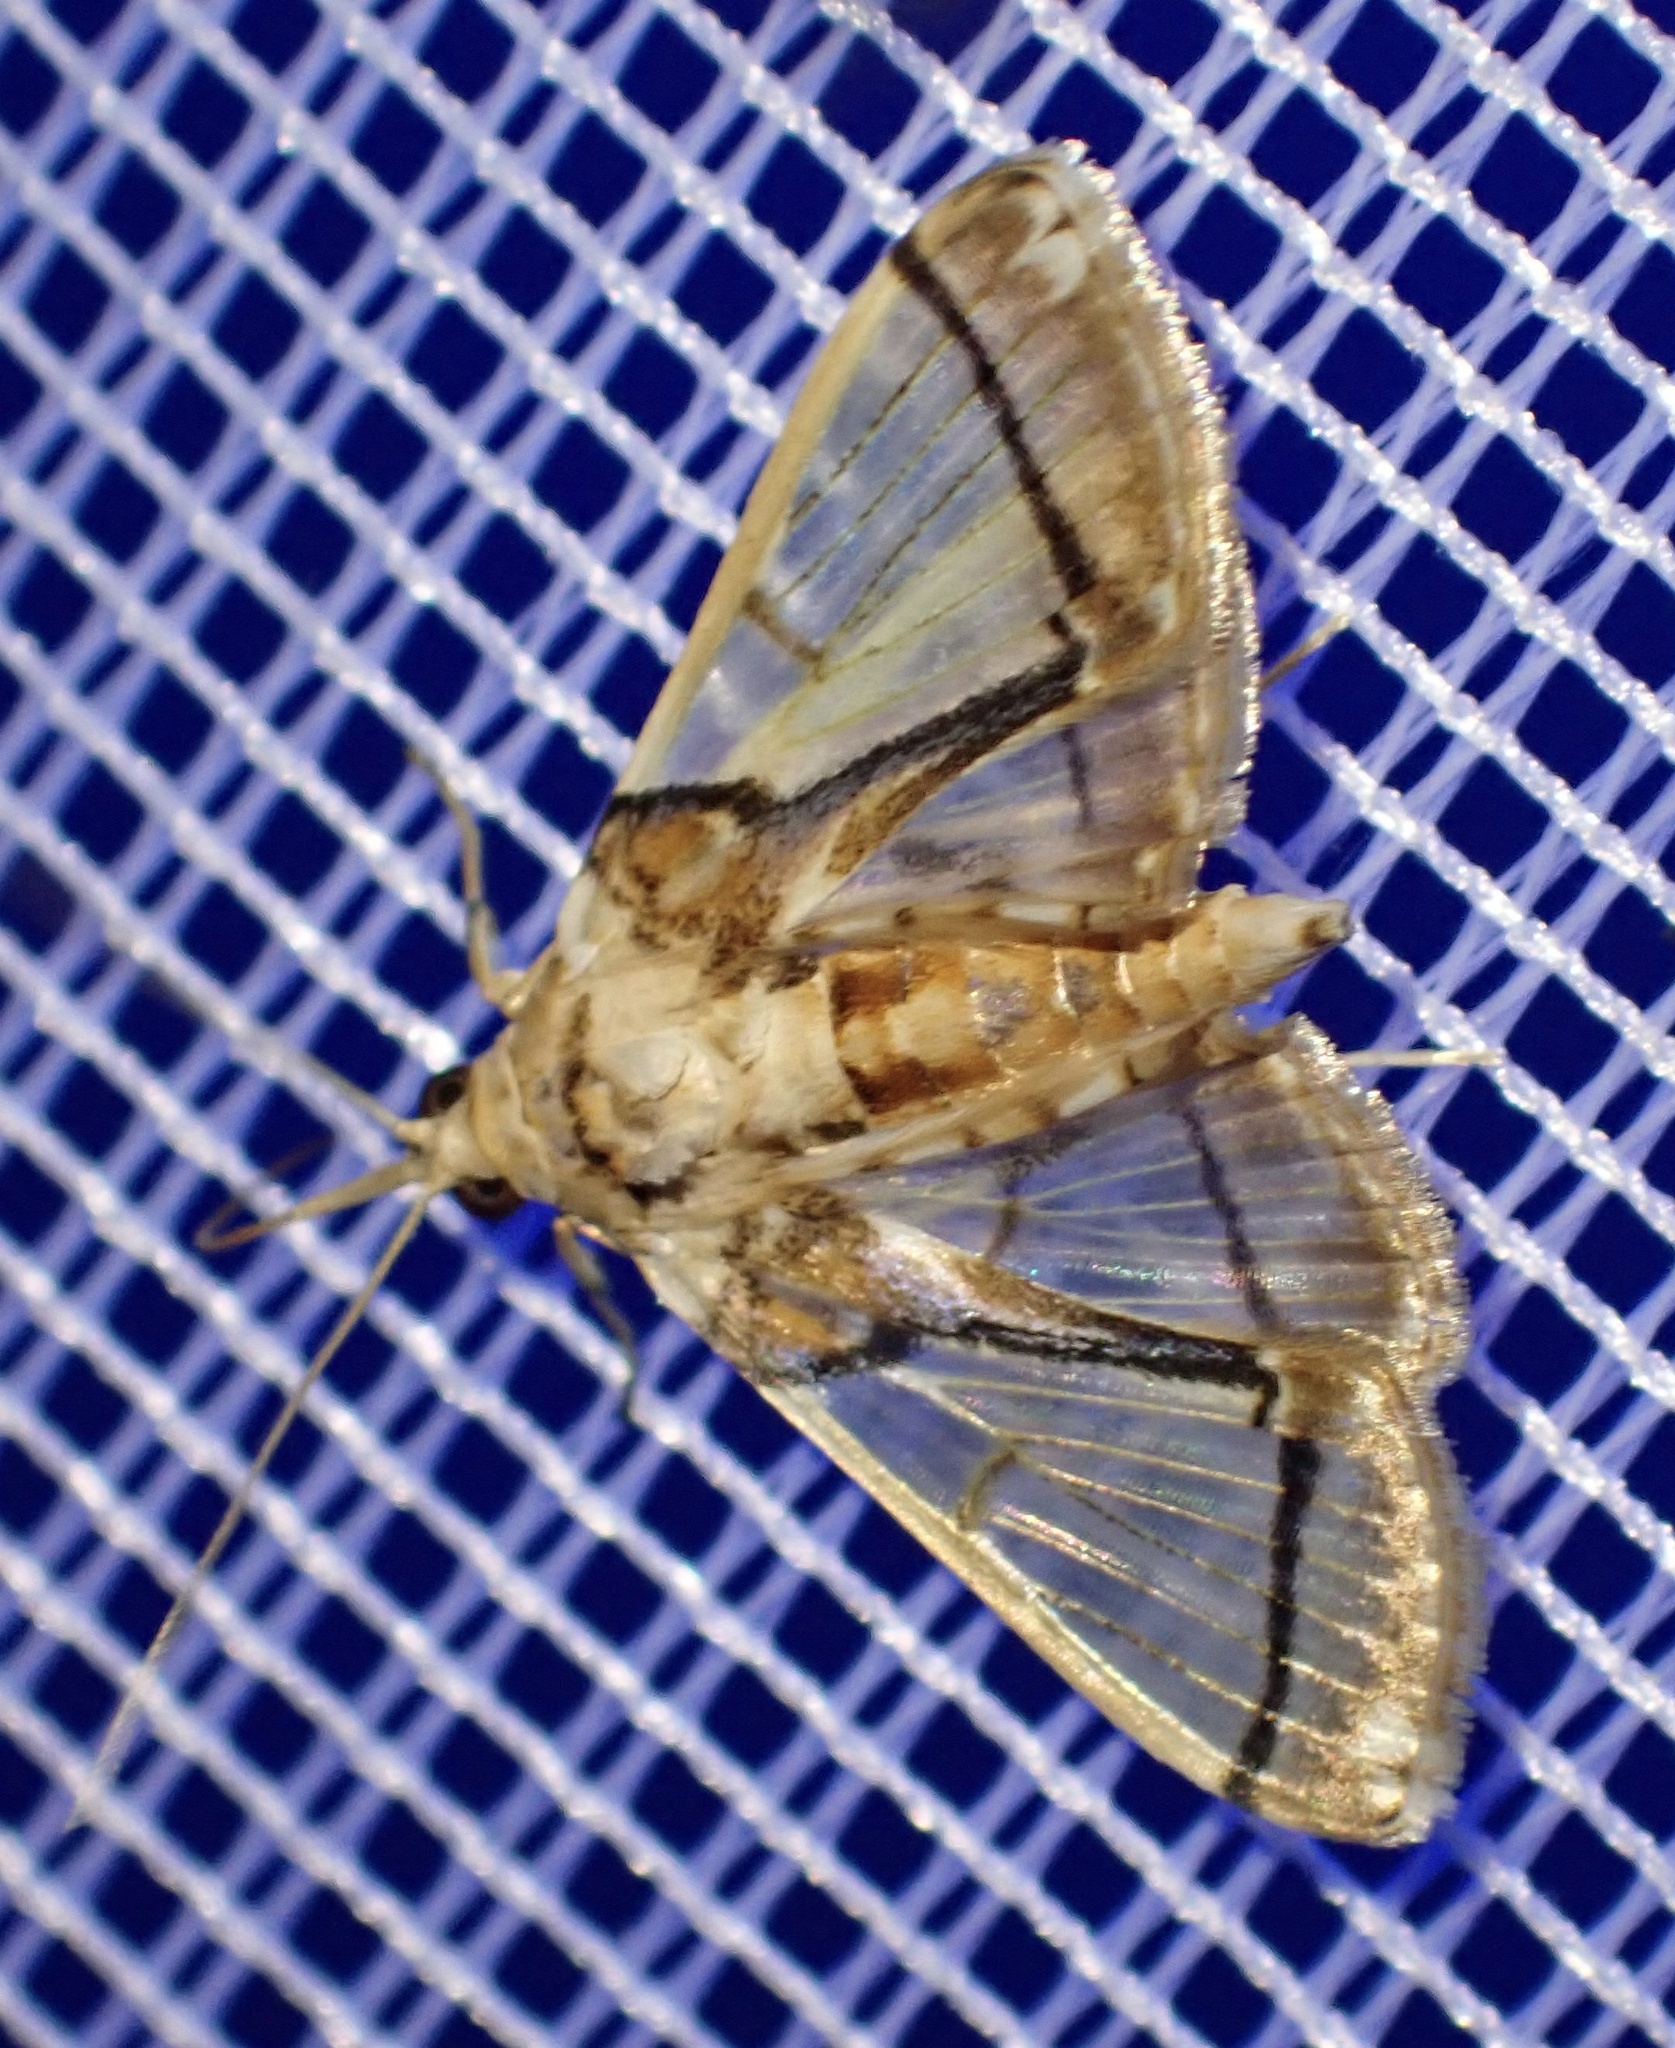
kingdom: Animalia
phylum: Arthropoda
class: Insecta
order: Lepidoptera
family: Crambidae
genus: Syllepte
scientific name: Syllepte chalybifascia
